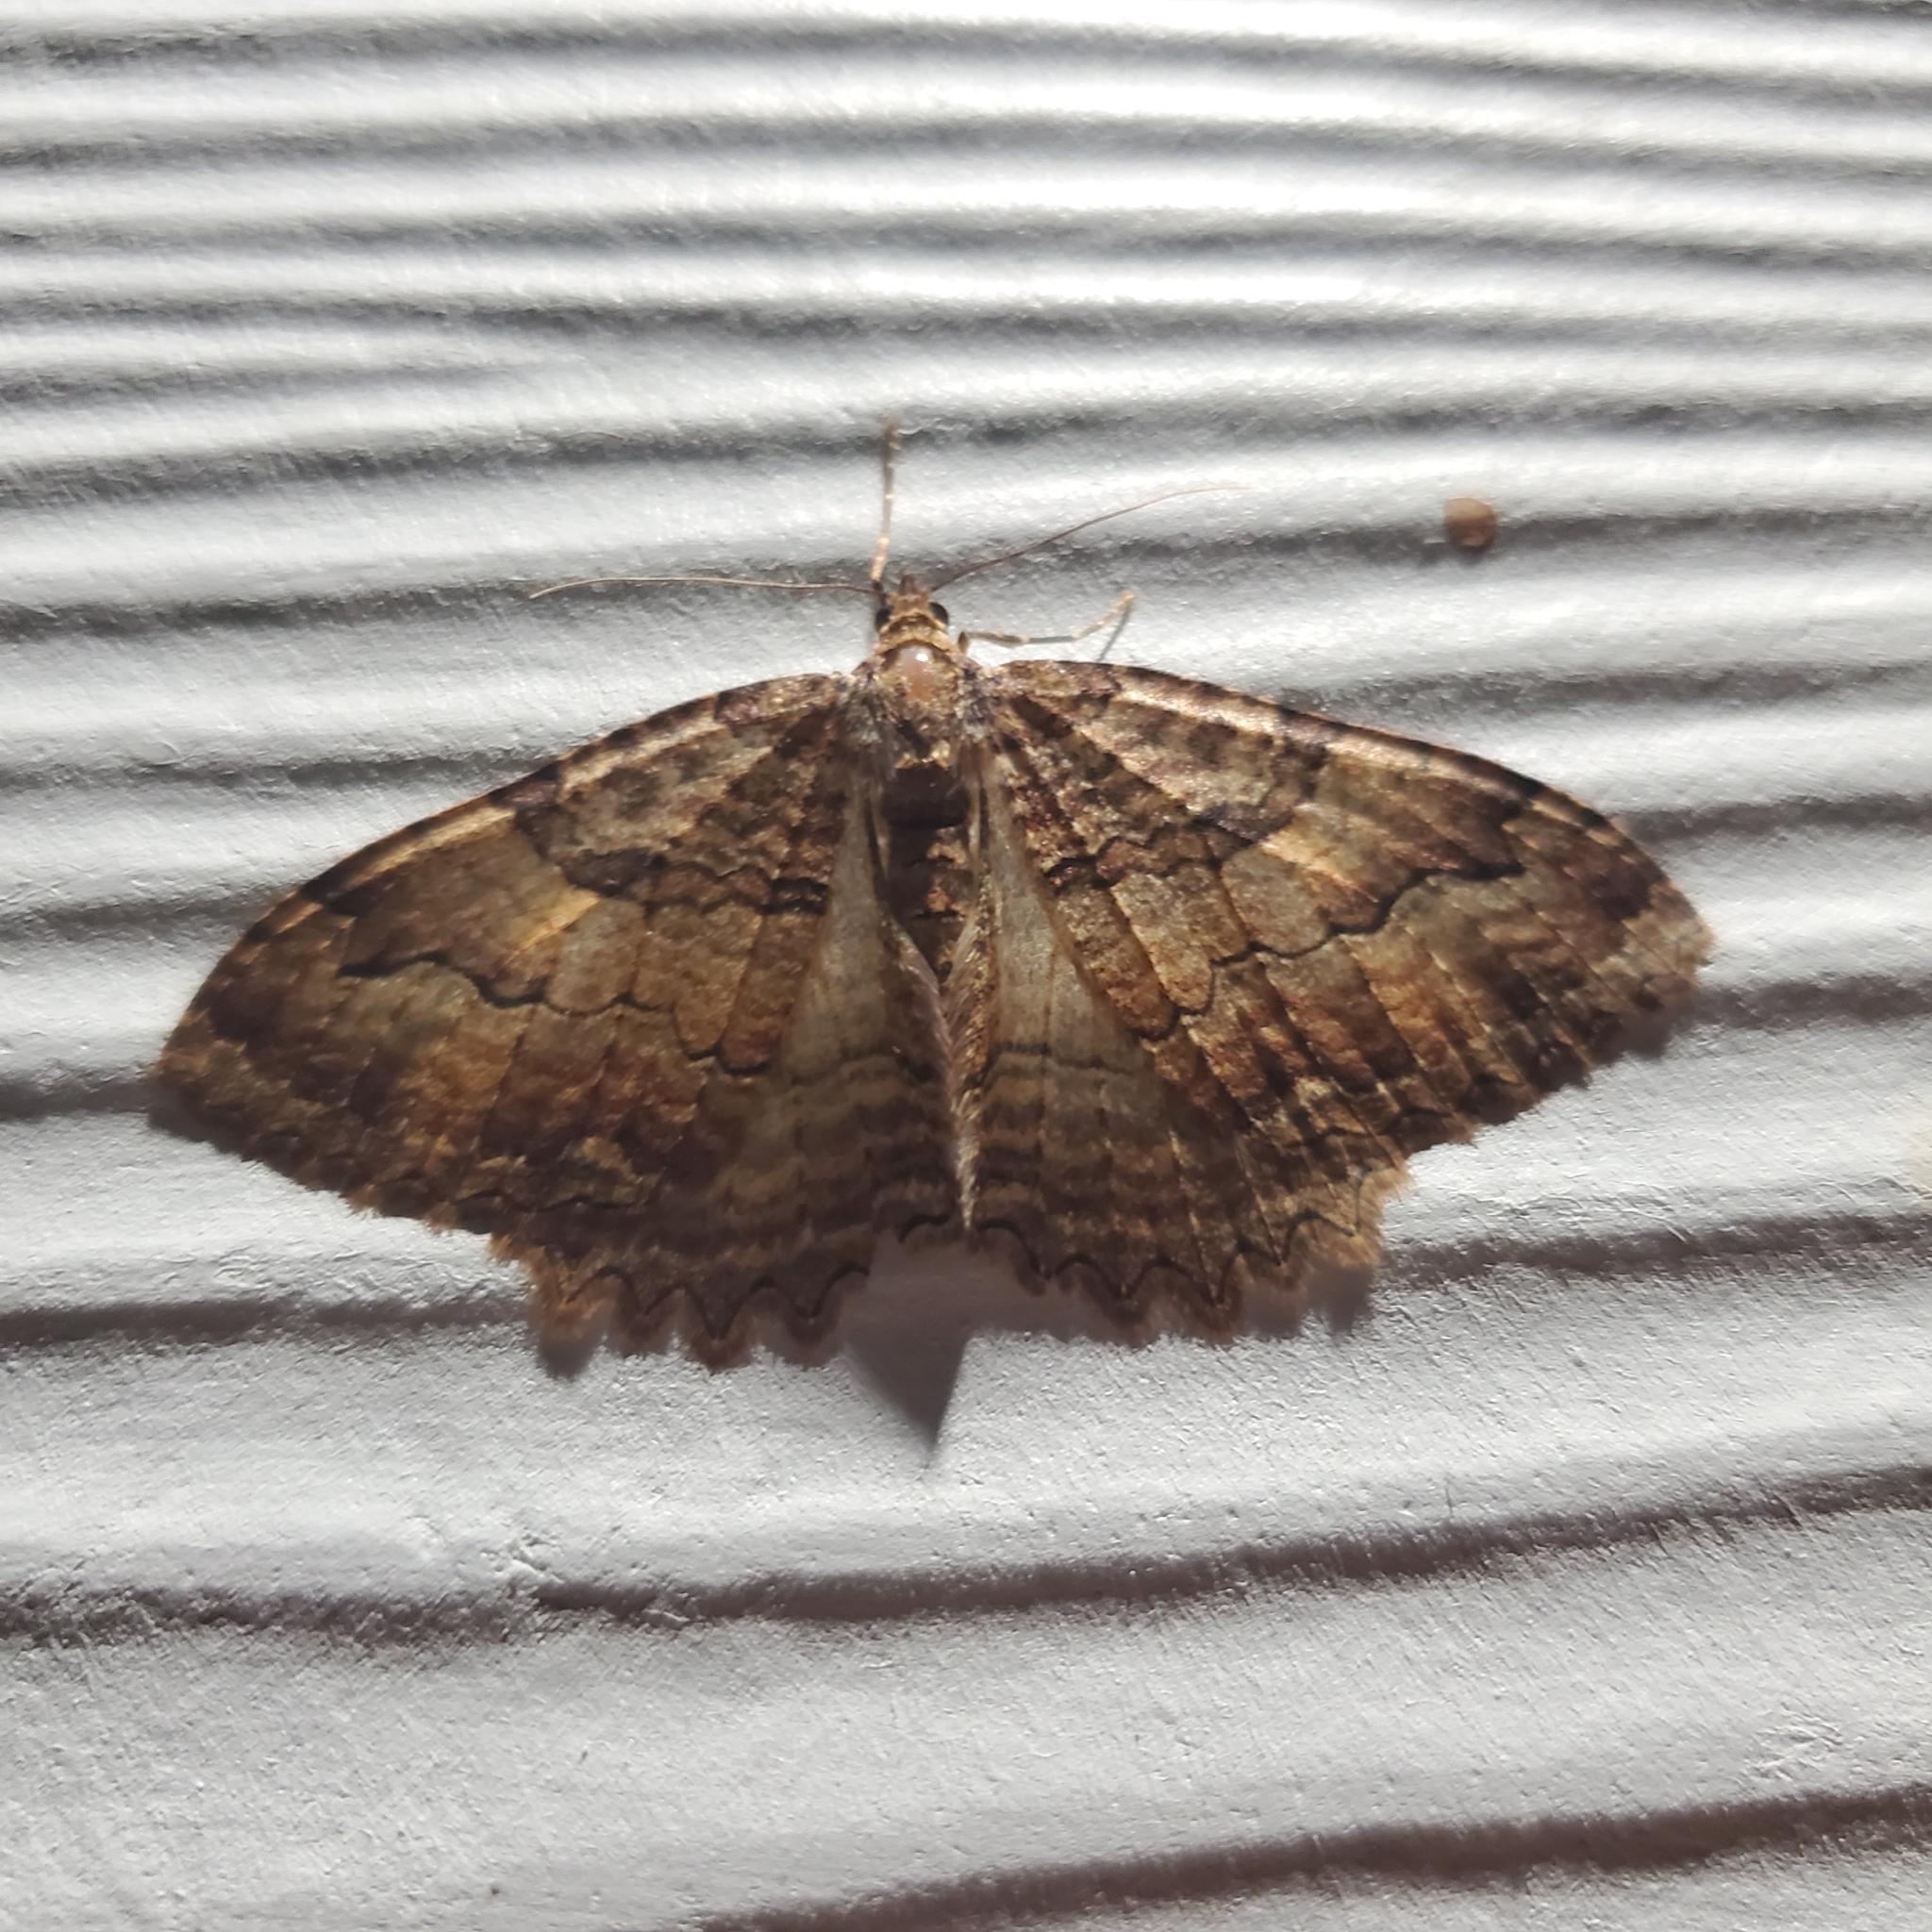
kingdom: Animalia
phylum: Arthropoda
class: Insecta
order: Lepidoptera
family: Geometridae
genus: Triphosa
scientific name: Triphosa haesitata
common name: Tissue moth
